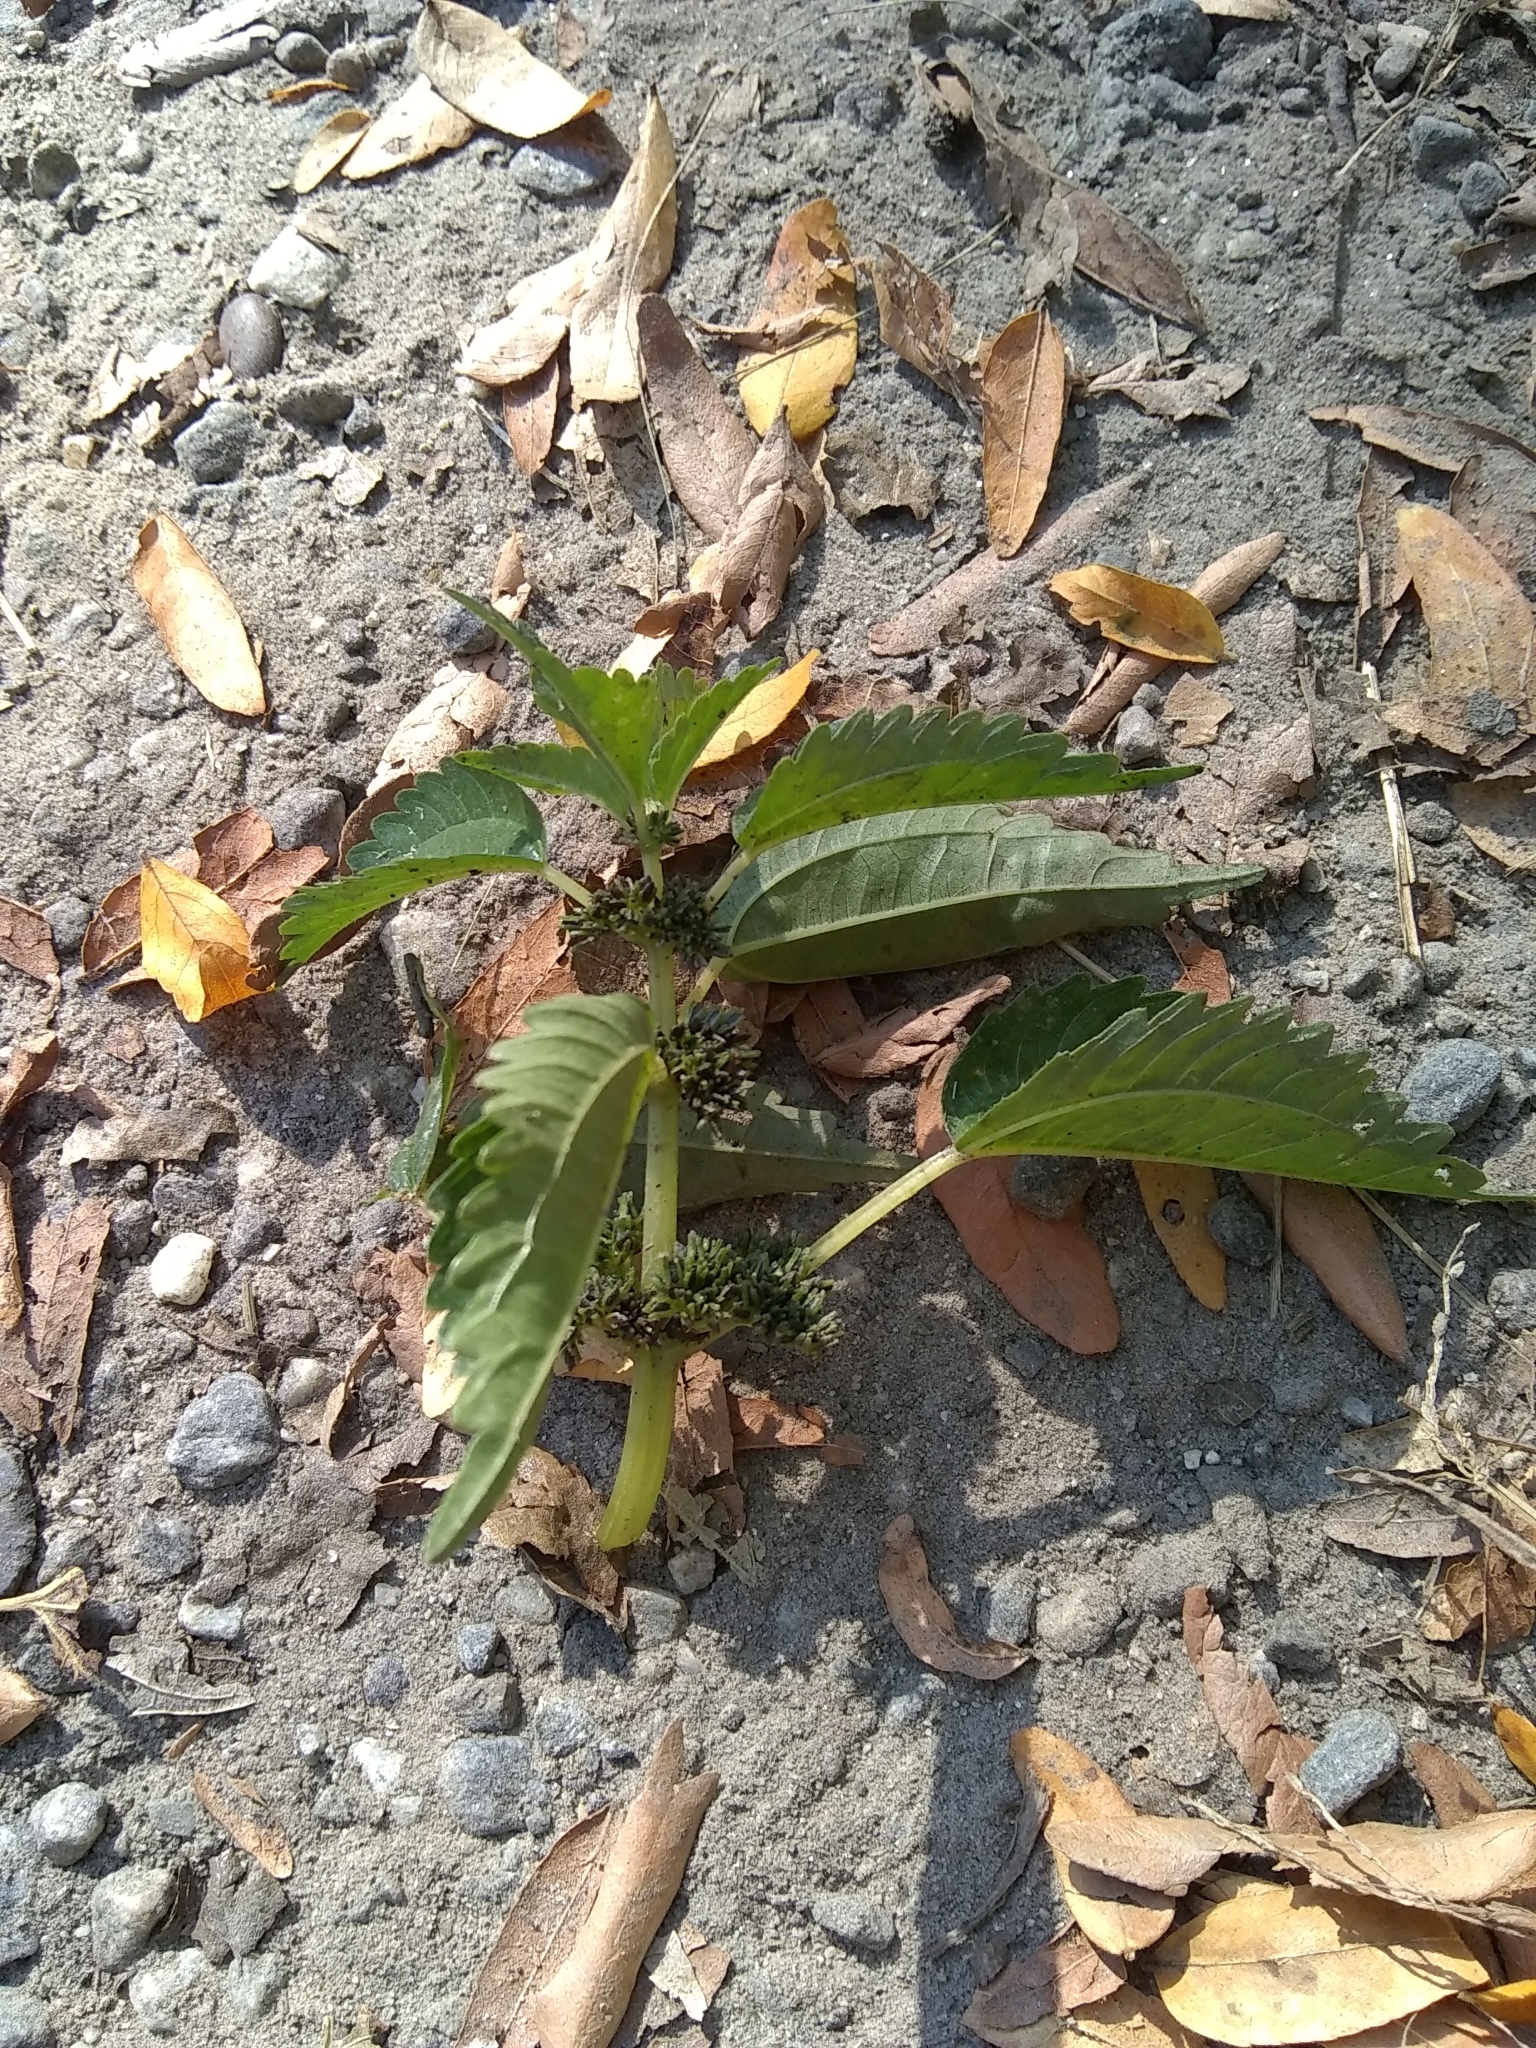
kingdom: Plantae
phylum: Tracheophyta
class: Magnoliopsida
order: Rosales
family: Urticaceae
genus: Pilea
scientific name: Pilea pumila
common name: Clearweed
